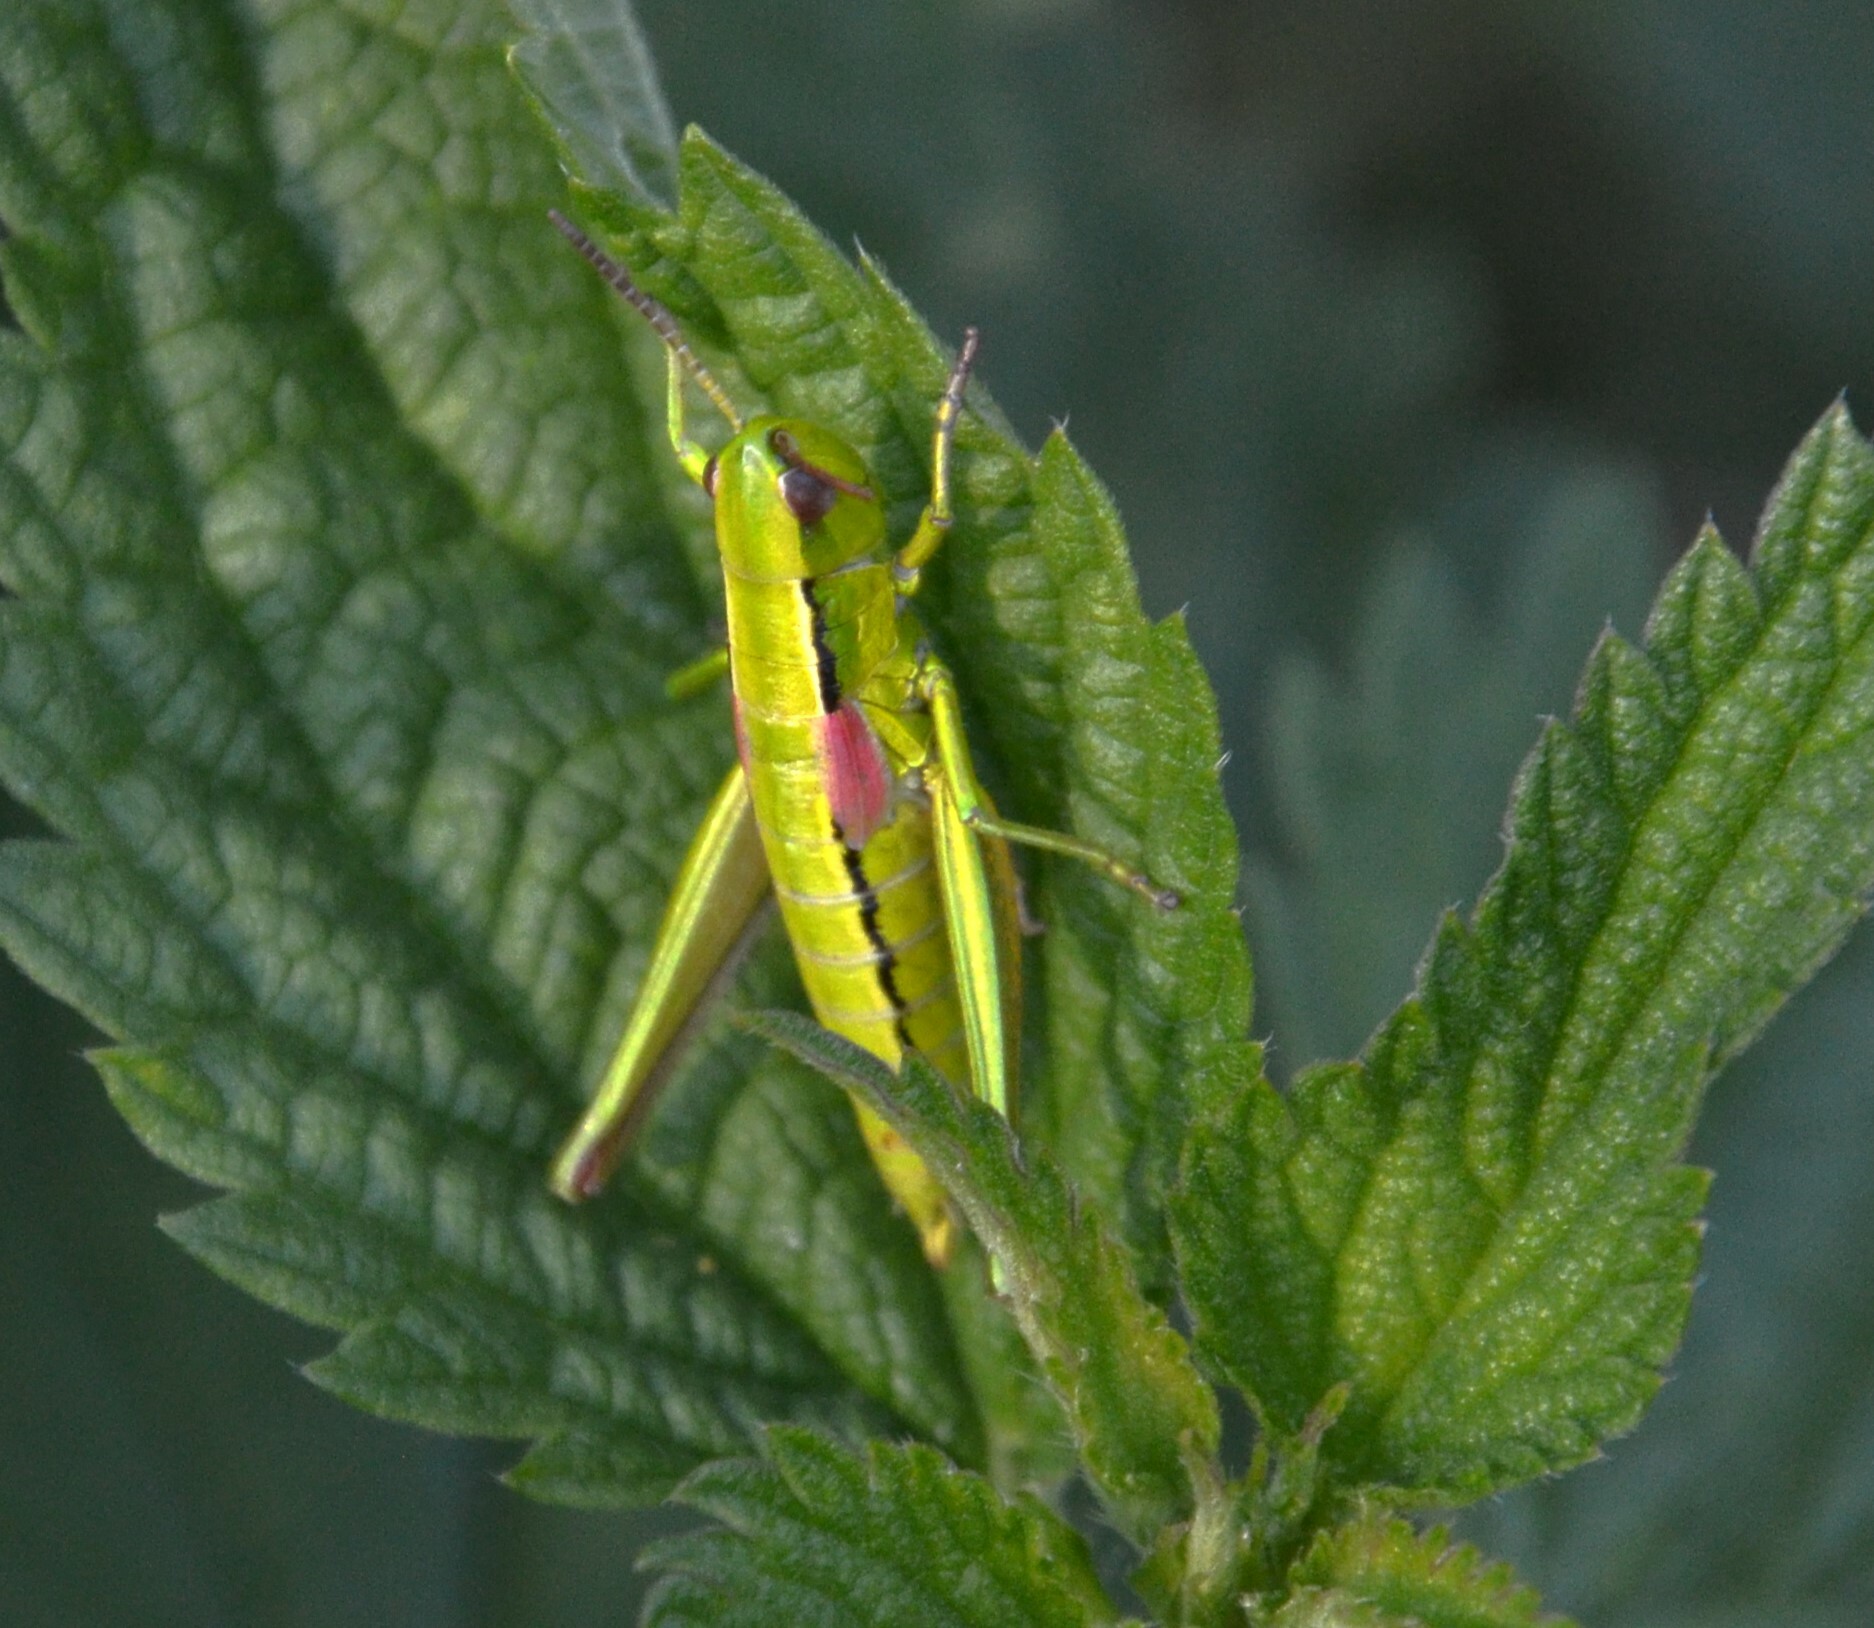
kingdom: Animalia
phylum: Arthropoda
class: Insecta
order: Orthoptera
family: Acrididae
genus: Euthystira
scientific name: Euthystira brachyptera
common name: Small gold grasshopper
